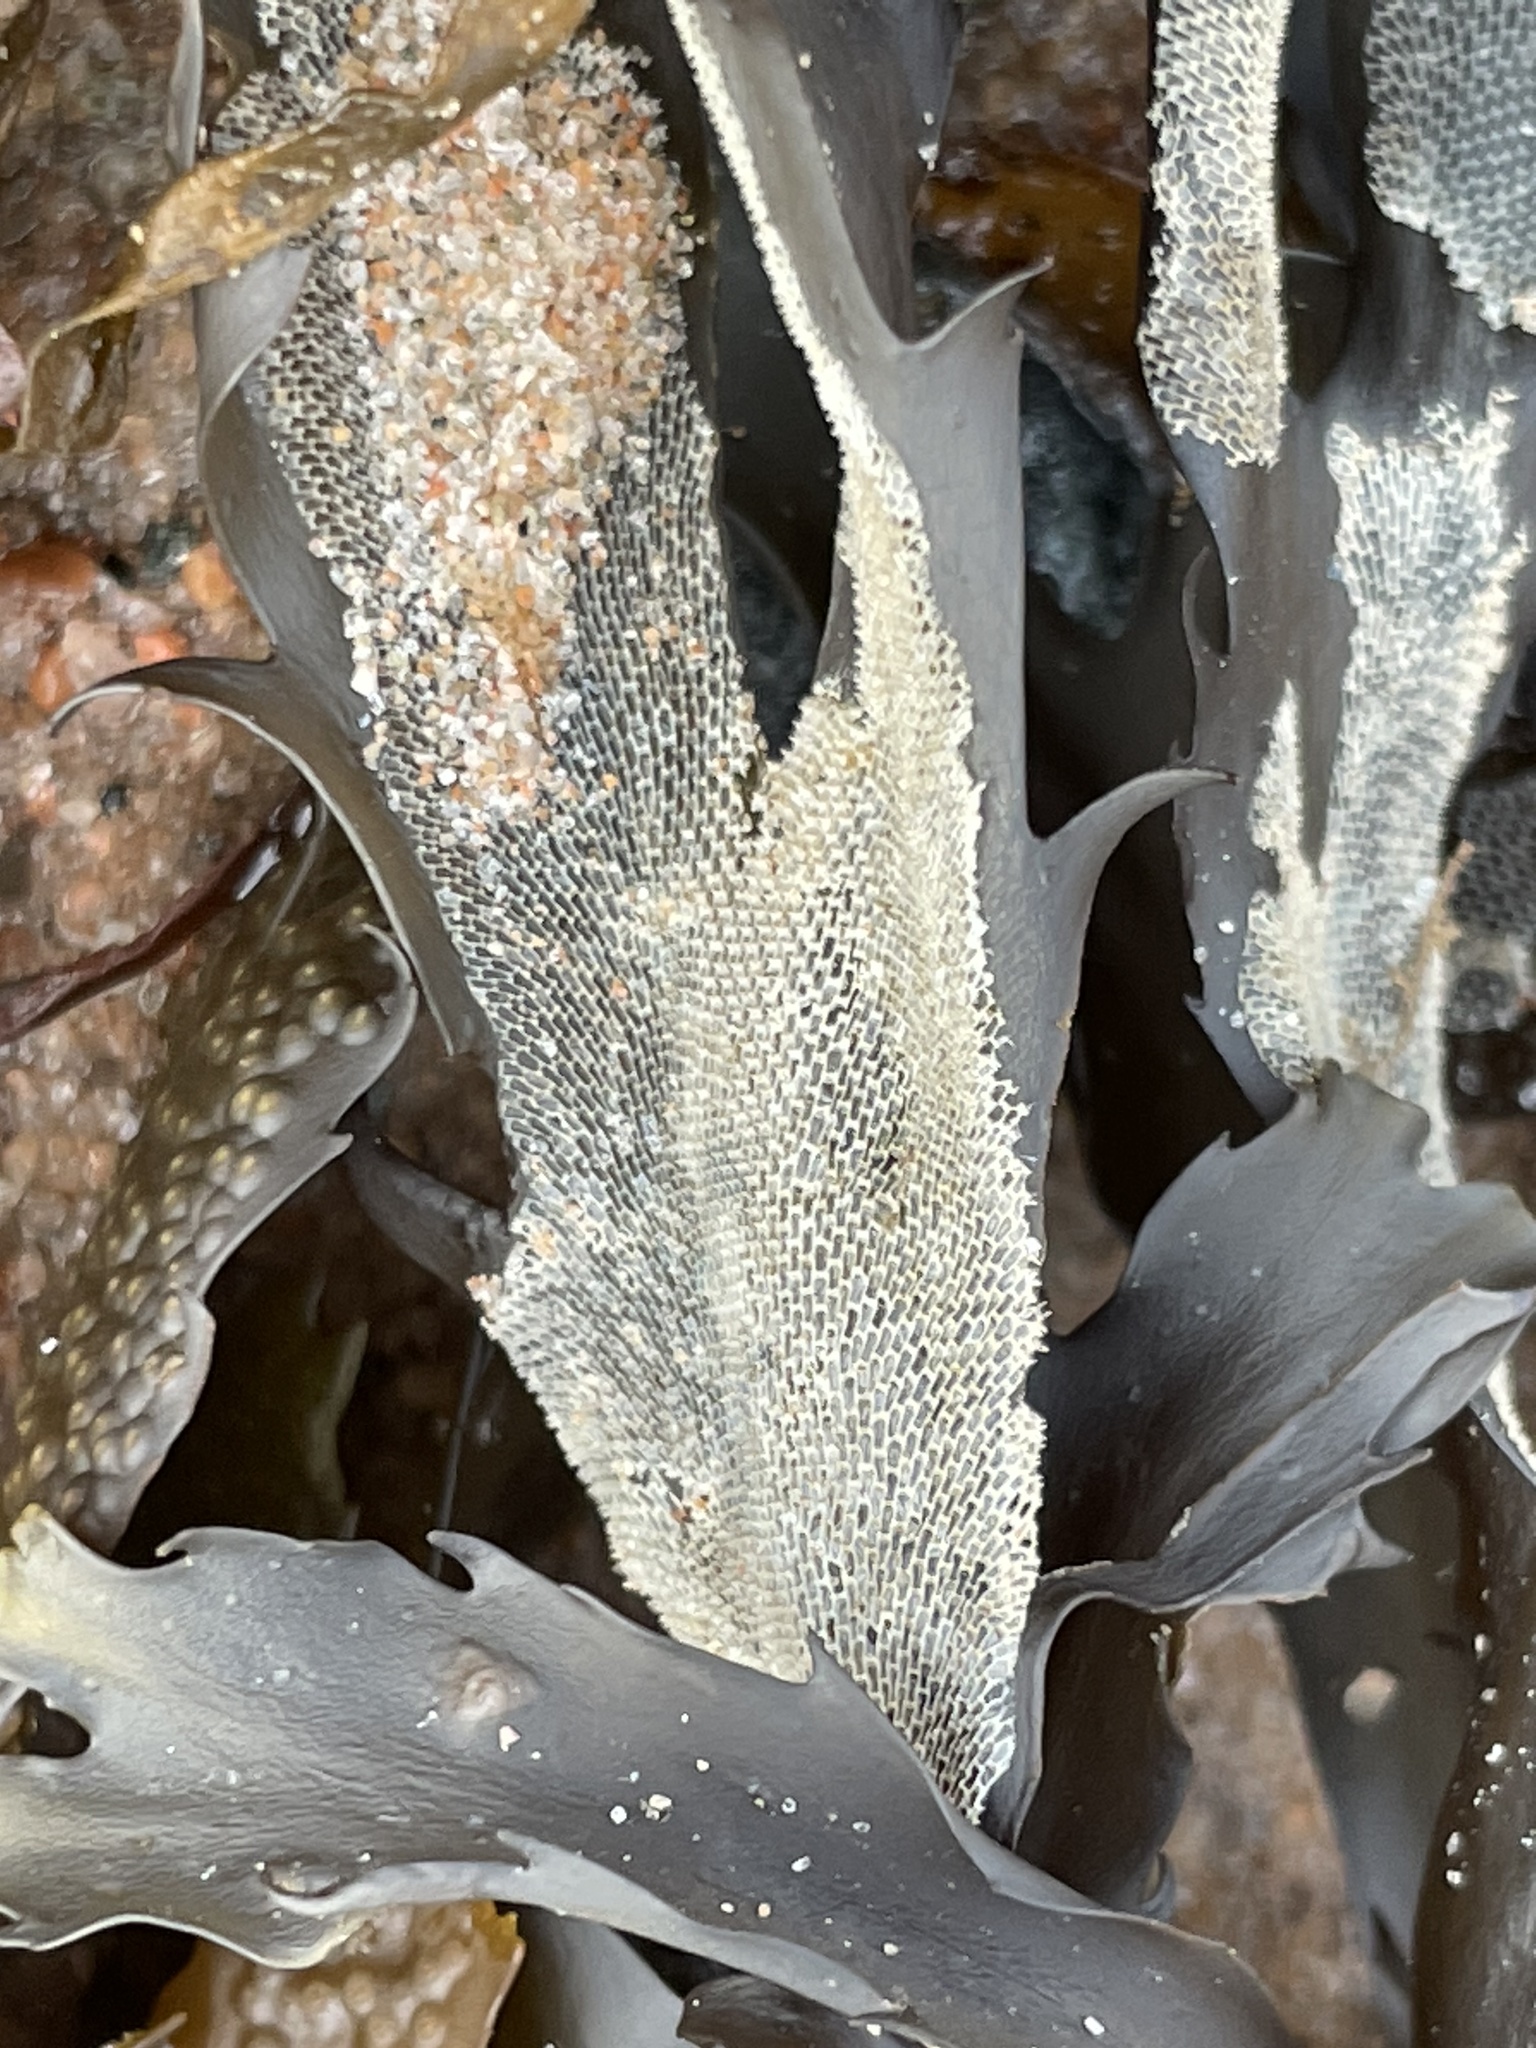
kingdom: Animalia
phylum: Bryozoa
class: Gymnolaemata
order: Cheilostomatida
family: Membraniporidae
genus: Membranipora
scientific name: Membranipora membranacea
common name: Sea mat
